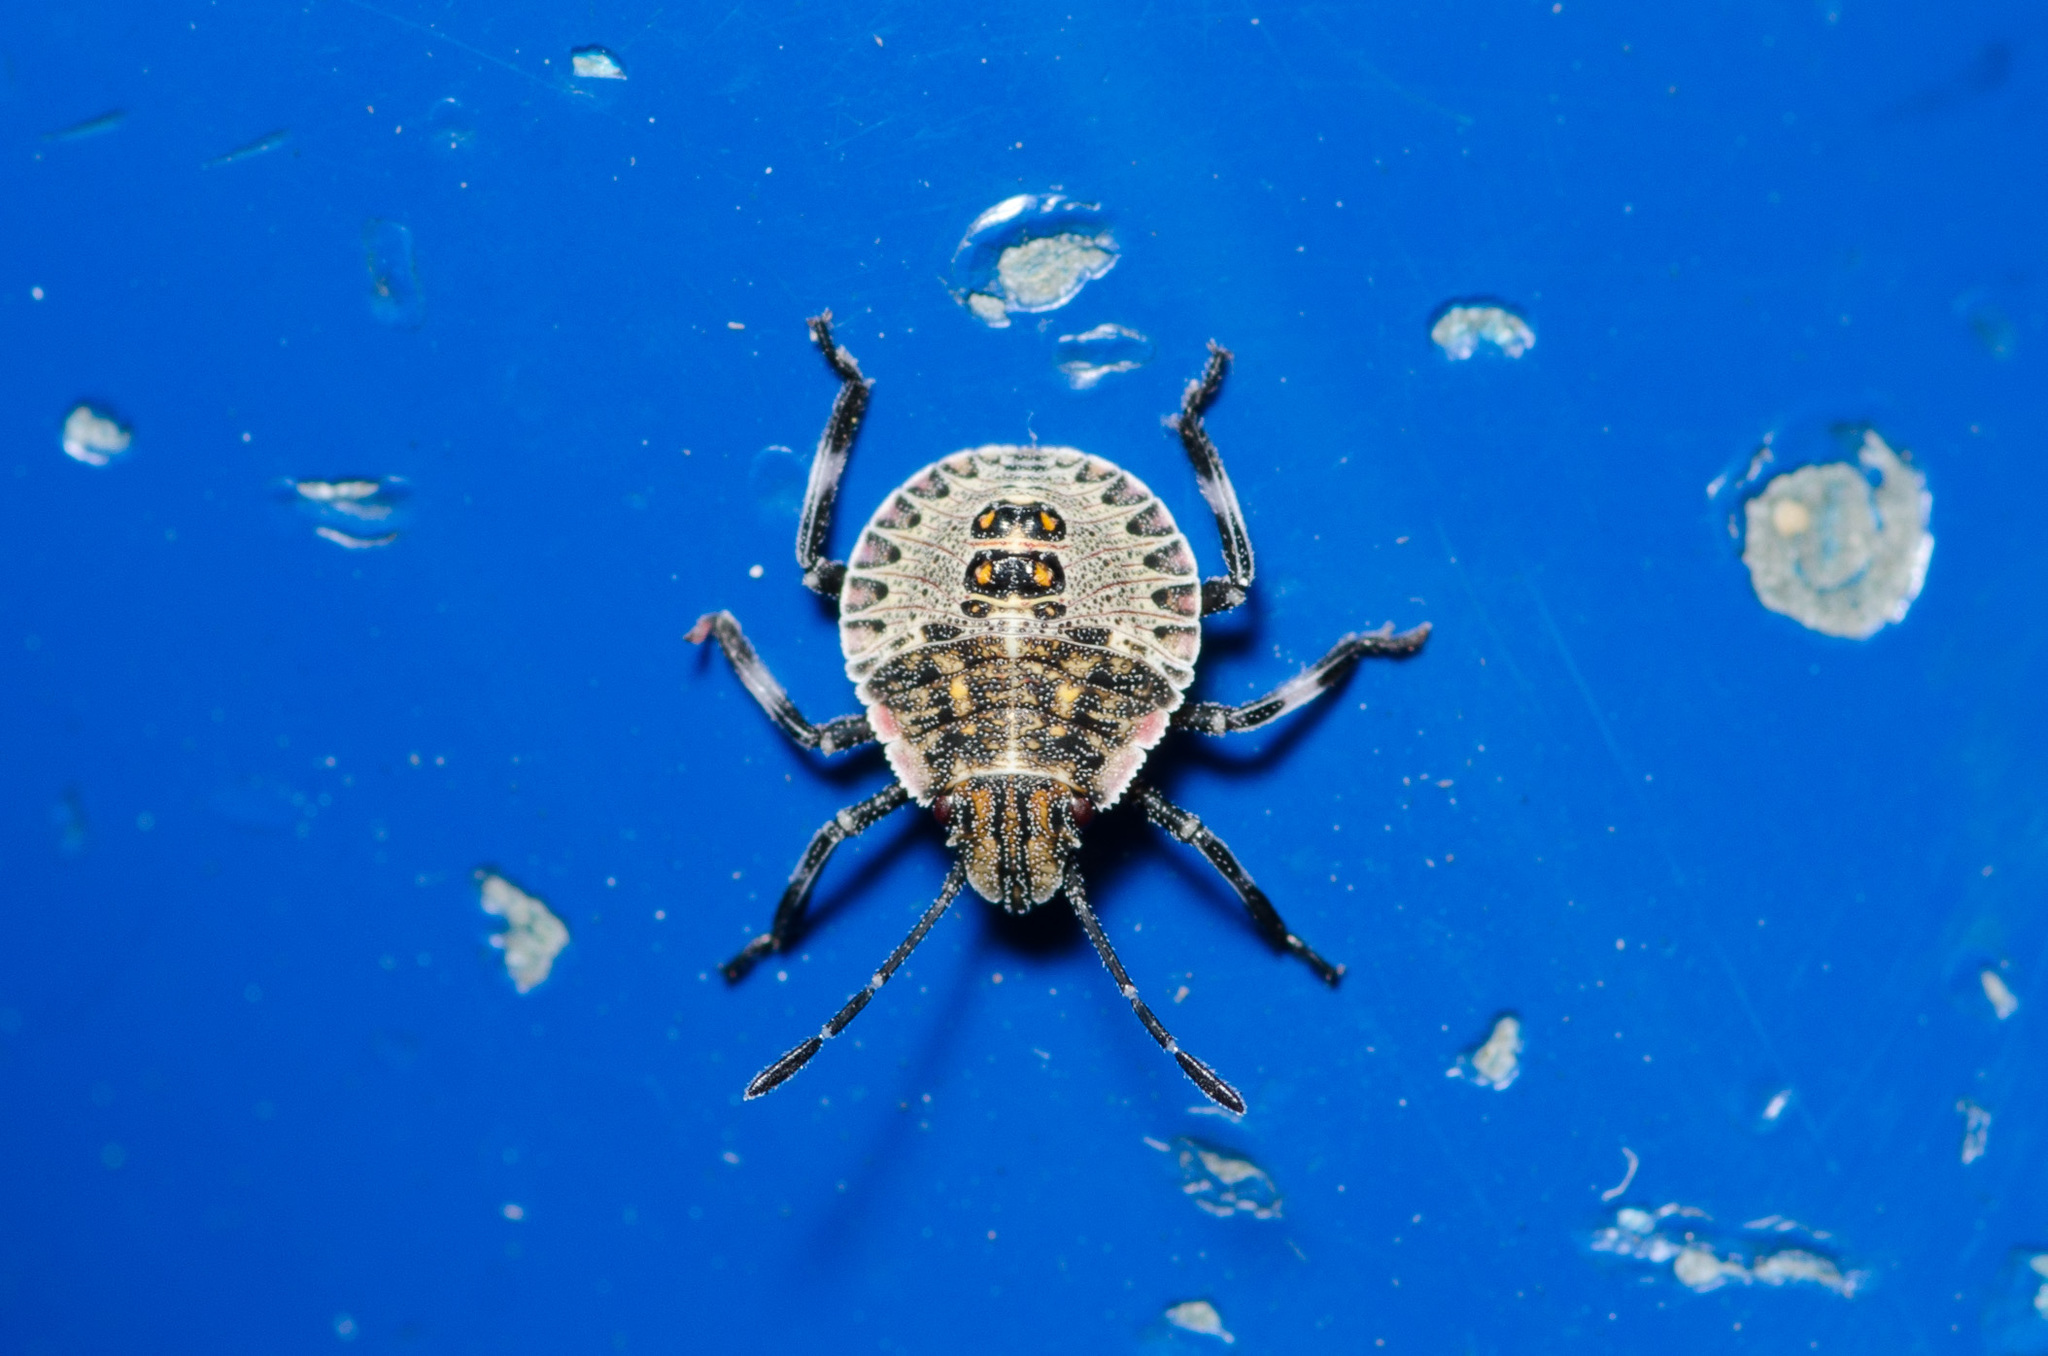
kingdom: Animalia
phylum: Arthropoda
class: Insecta
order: Hemiptera
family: Pentatomidae
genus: Brochymena
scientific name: Brochymena
